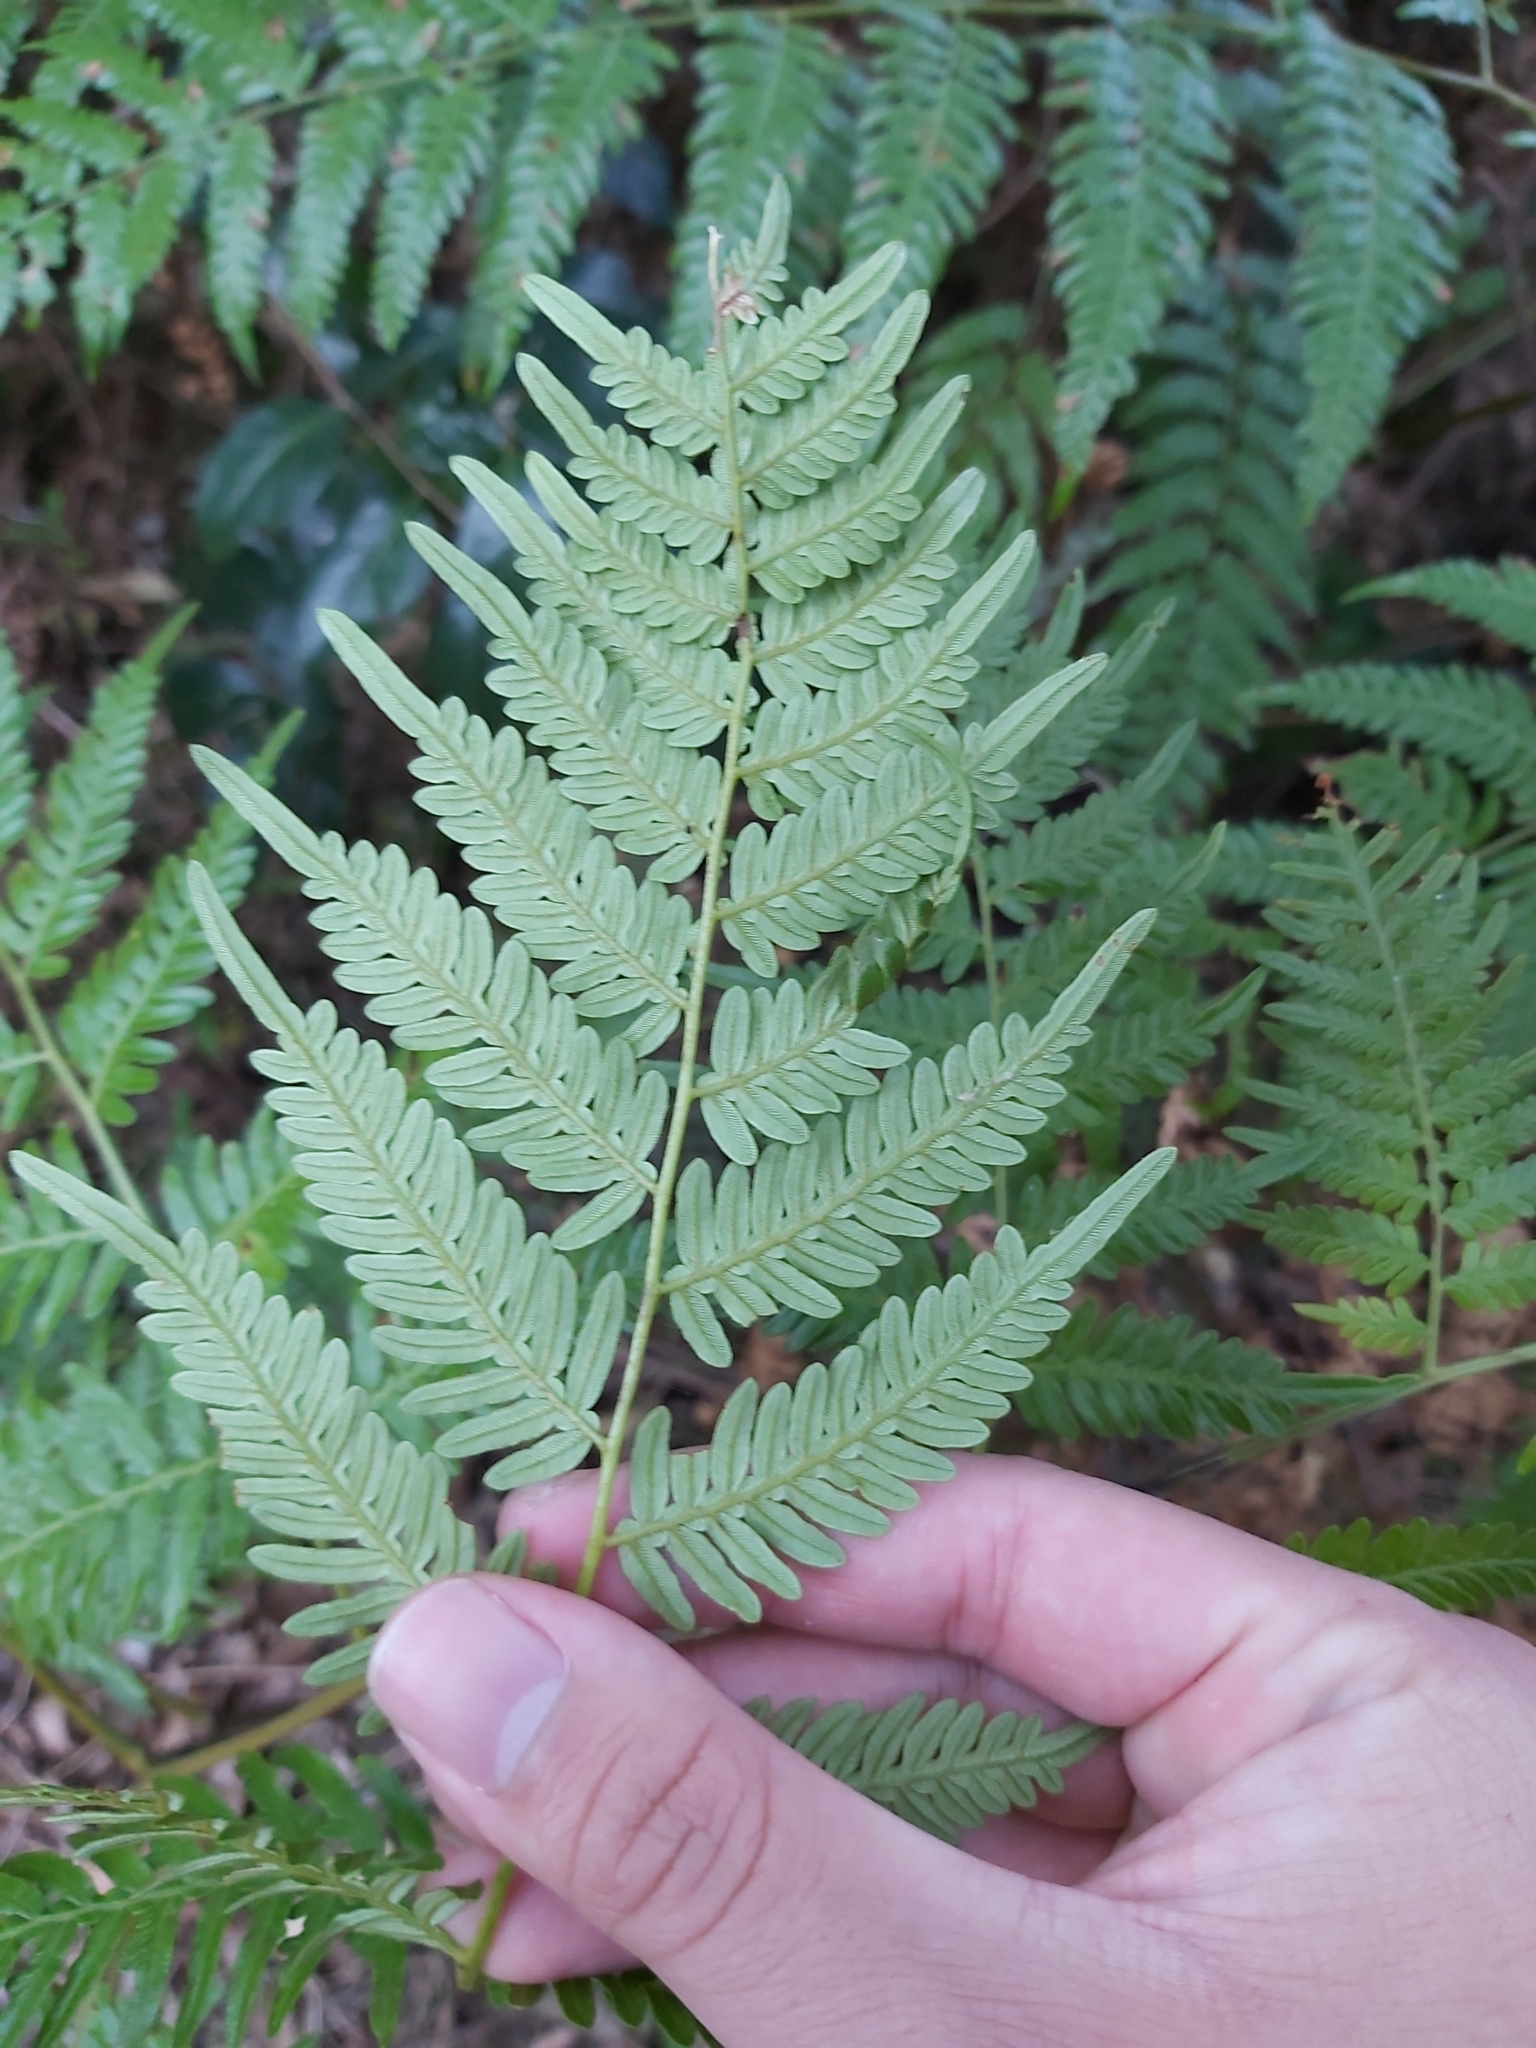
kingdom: Plantae
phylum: Tracheophyta
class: Polypodiopsida
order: Polypodiales
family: Dennstaedtiaceae
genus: Pteridium
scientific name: Pteridium esculentum
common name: Bracken fern
